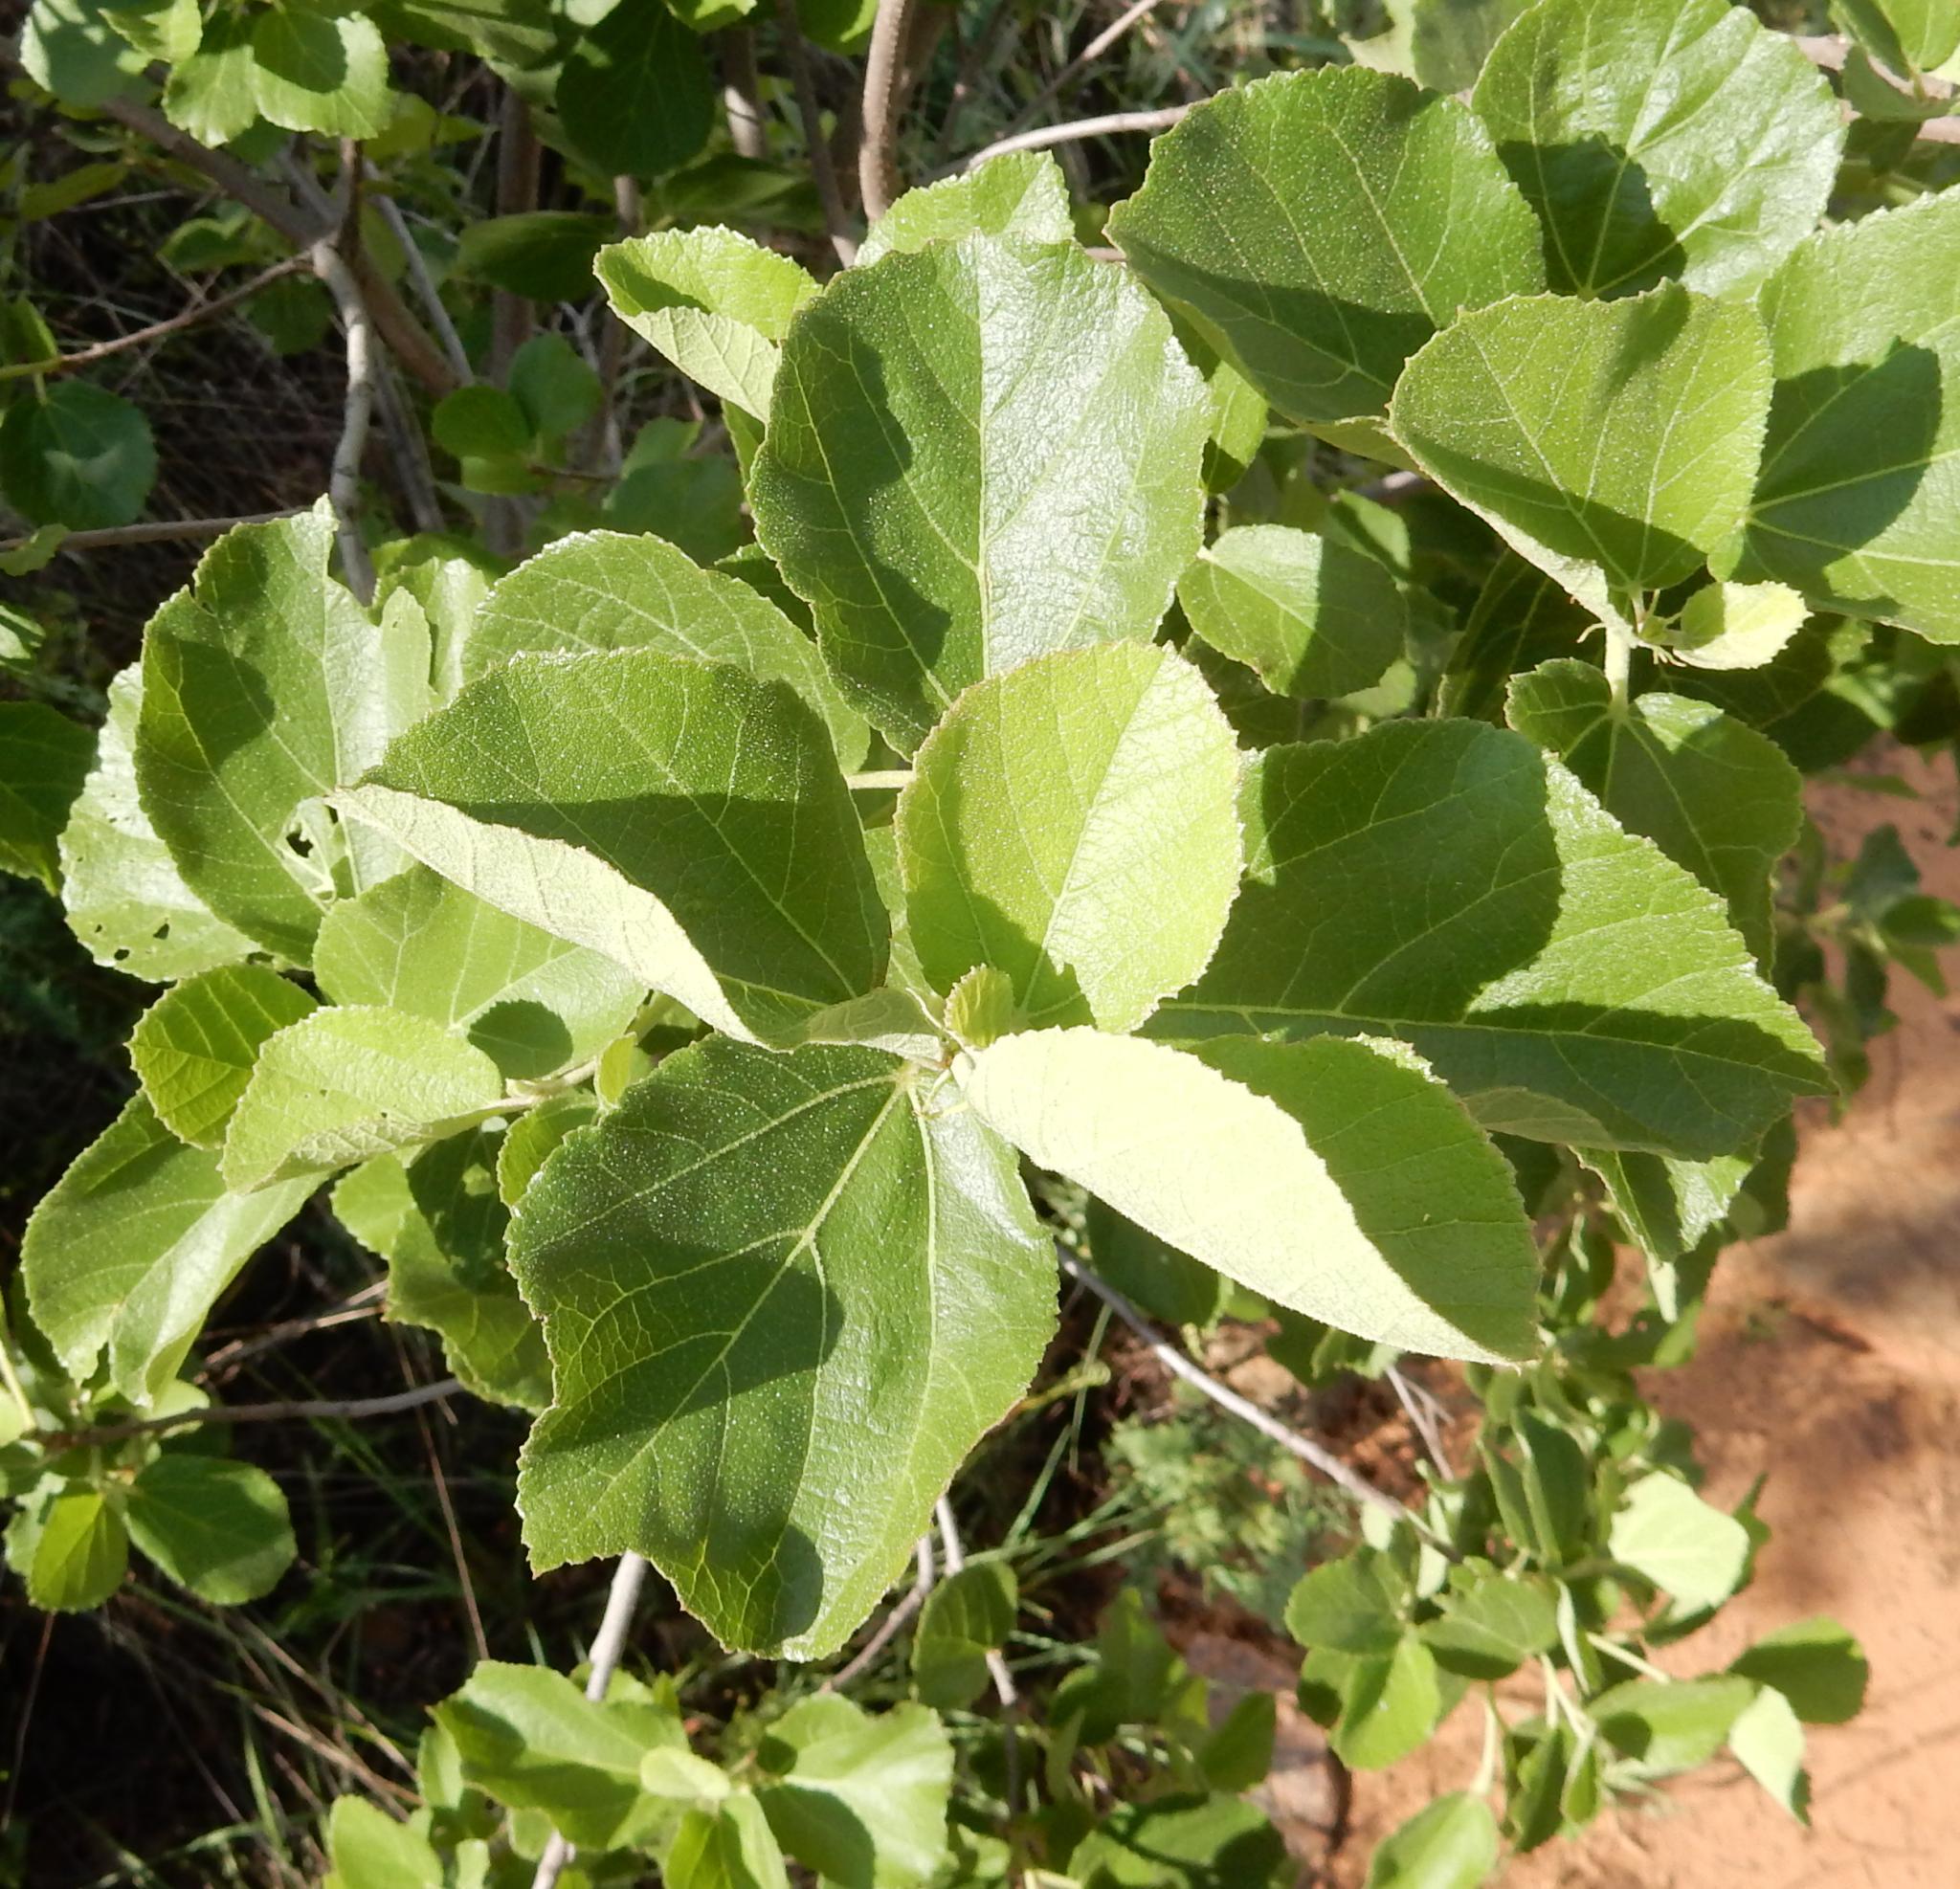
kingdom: Plantae
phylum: Tracheophyta
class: Magnoliopsida
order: Malvales
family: Malvaceae
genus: Dombeya
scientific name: Dombeya rotundifolia
